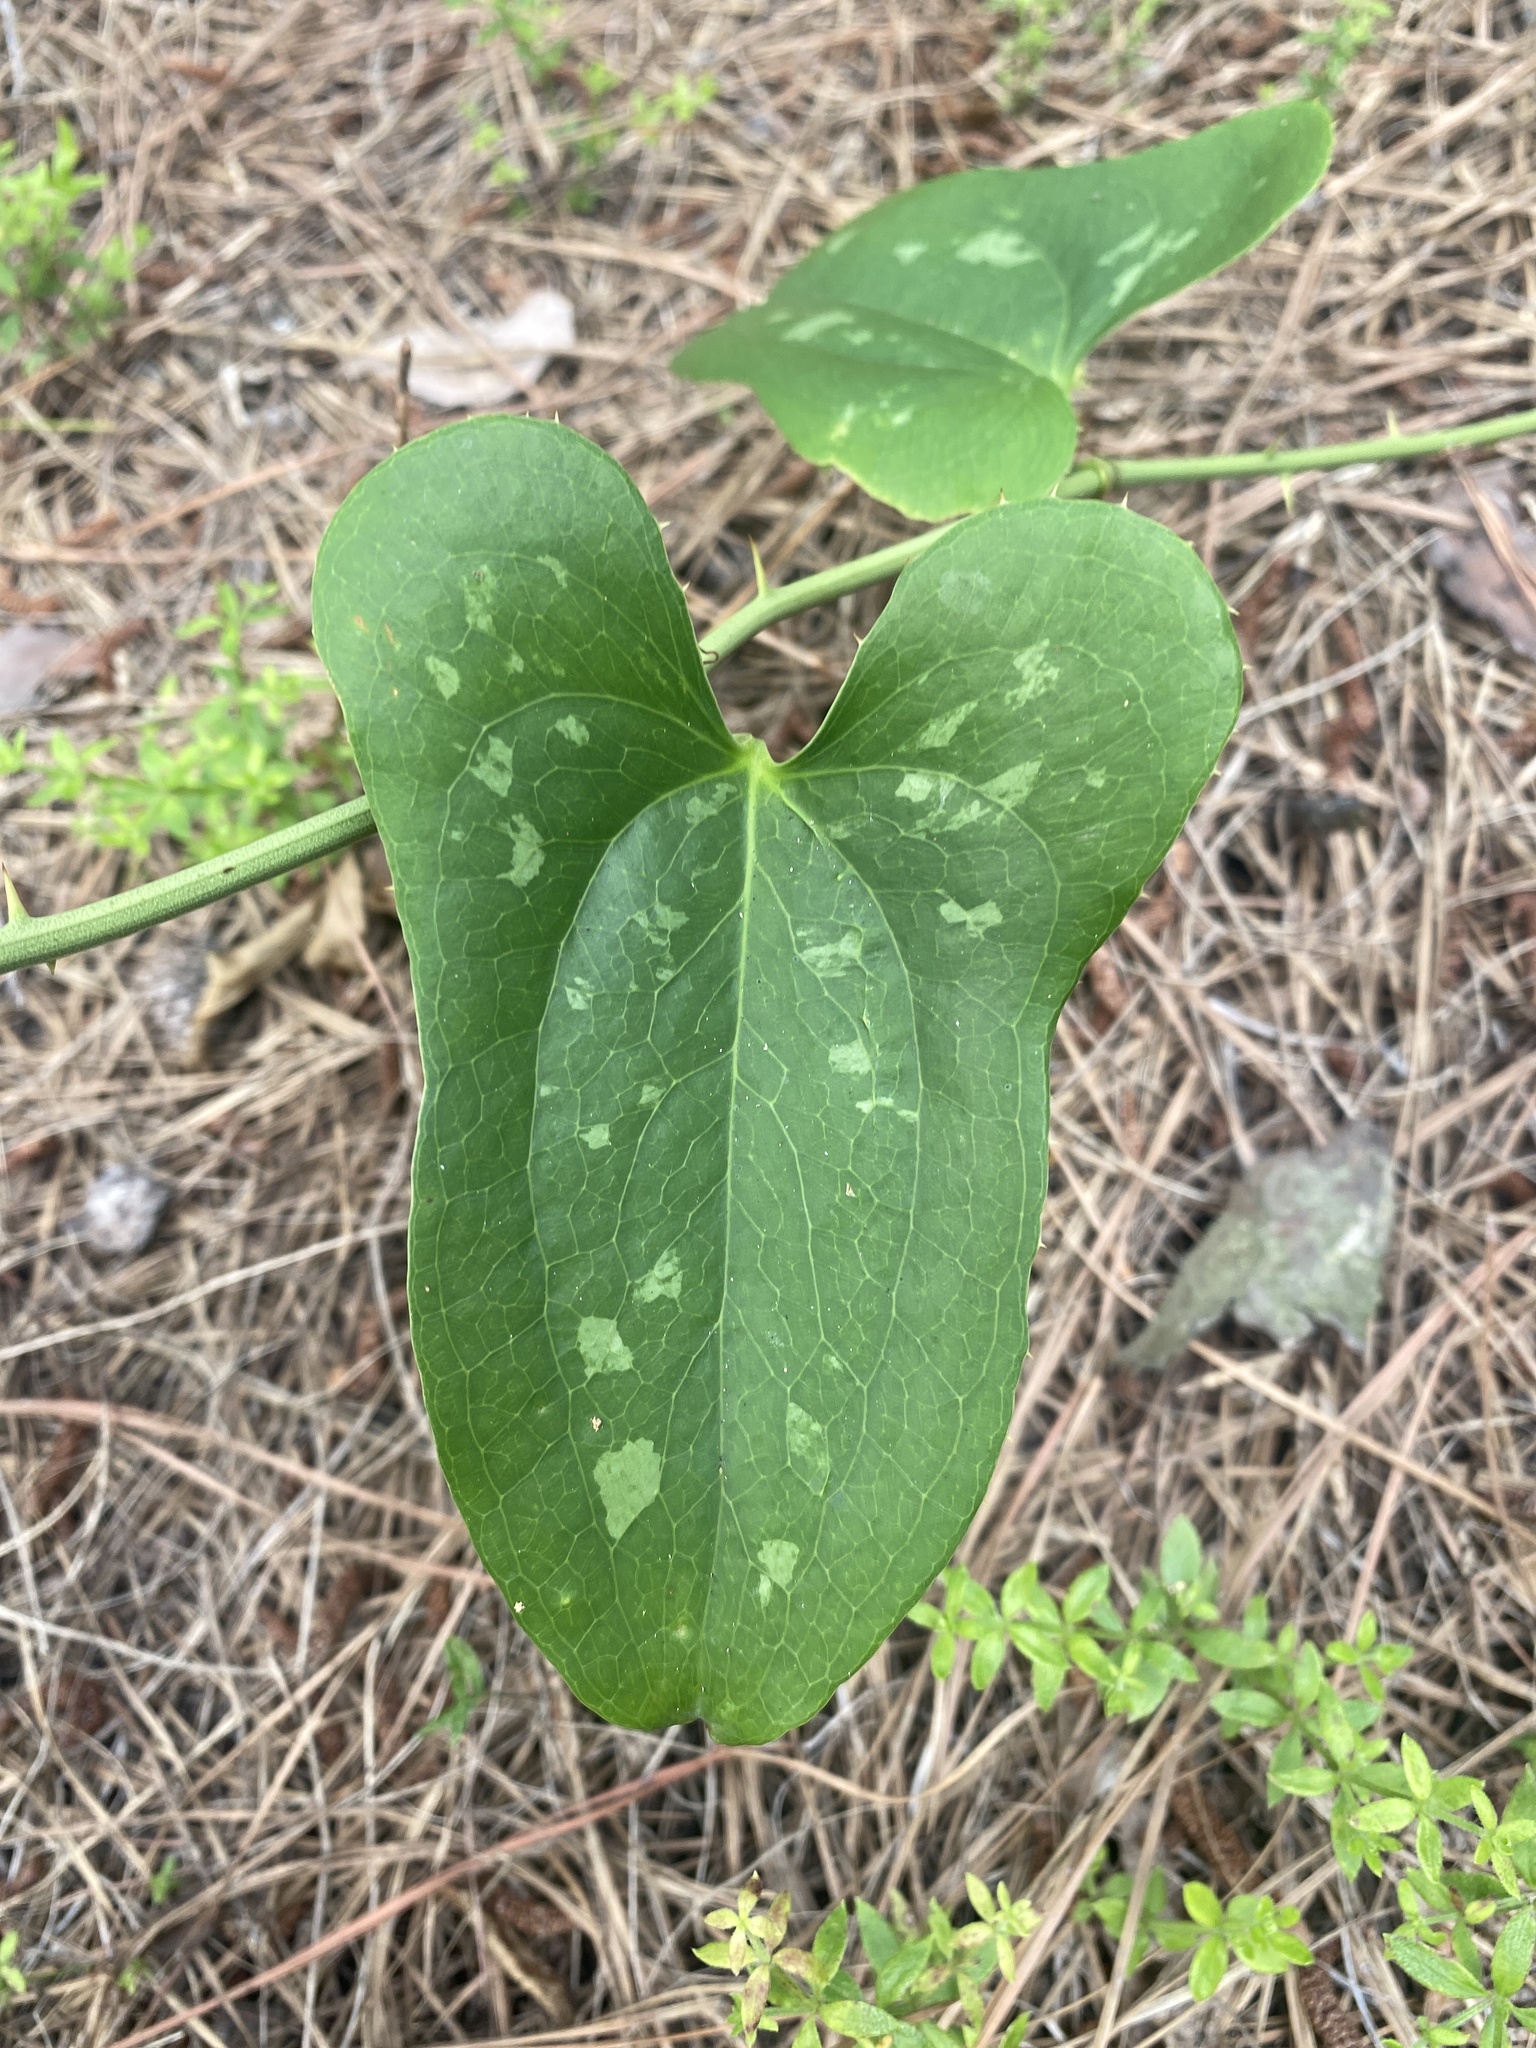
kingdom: Plantae
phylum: Tracheophyta
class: Liliopsida
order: Liliales
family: Smilacaceae
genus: Smilax
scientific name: Smilax bona-nox
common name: Catbrier
